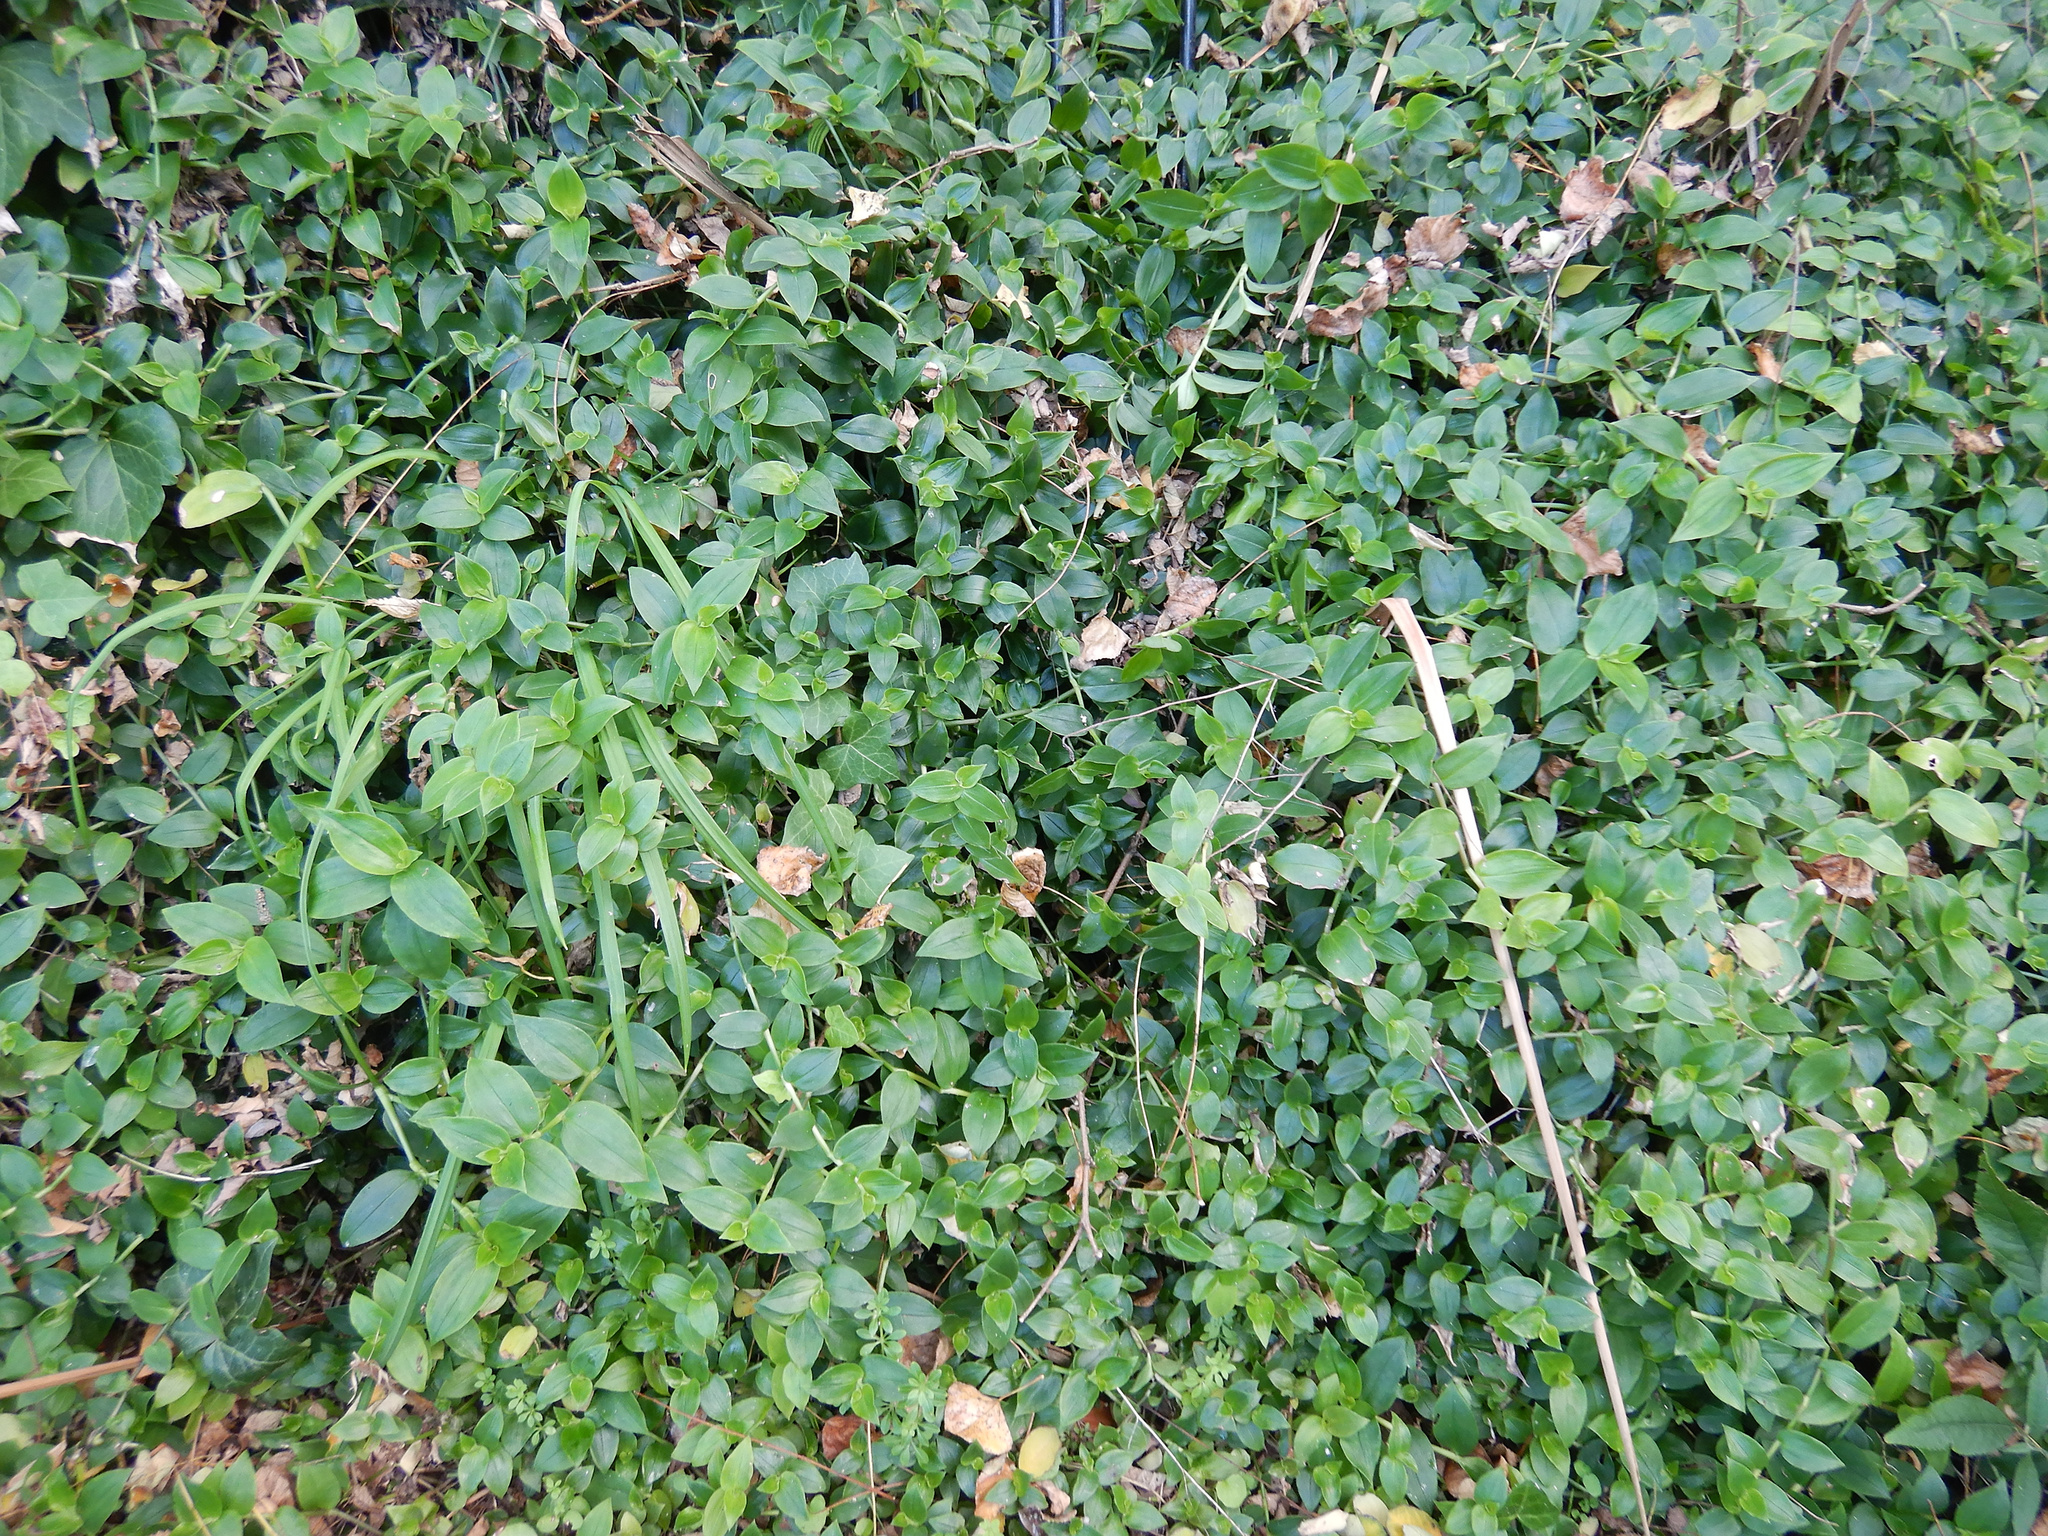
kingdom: Plantae
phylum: Tracheophyta
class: Liliopsida
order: Commelinales
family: Commelinaceae
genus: Tradescantia
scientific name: Tradescantia fluminensis
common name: Wandering-jew
